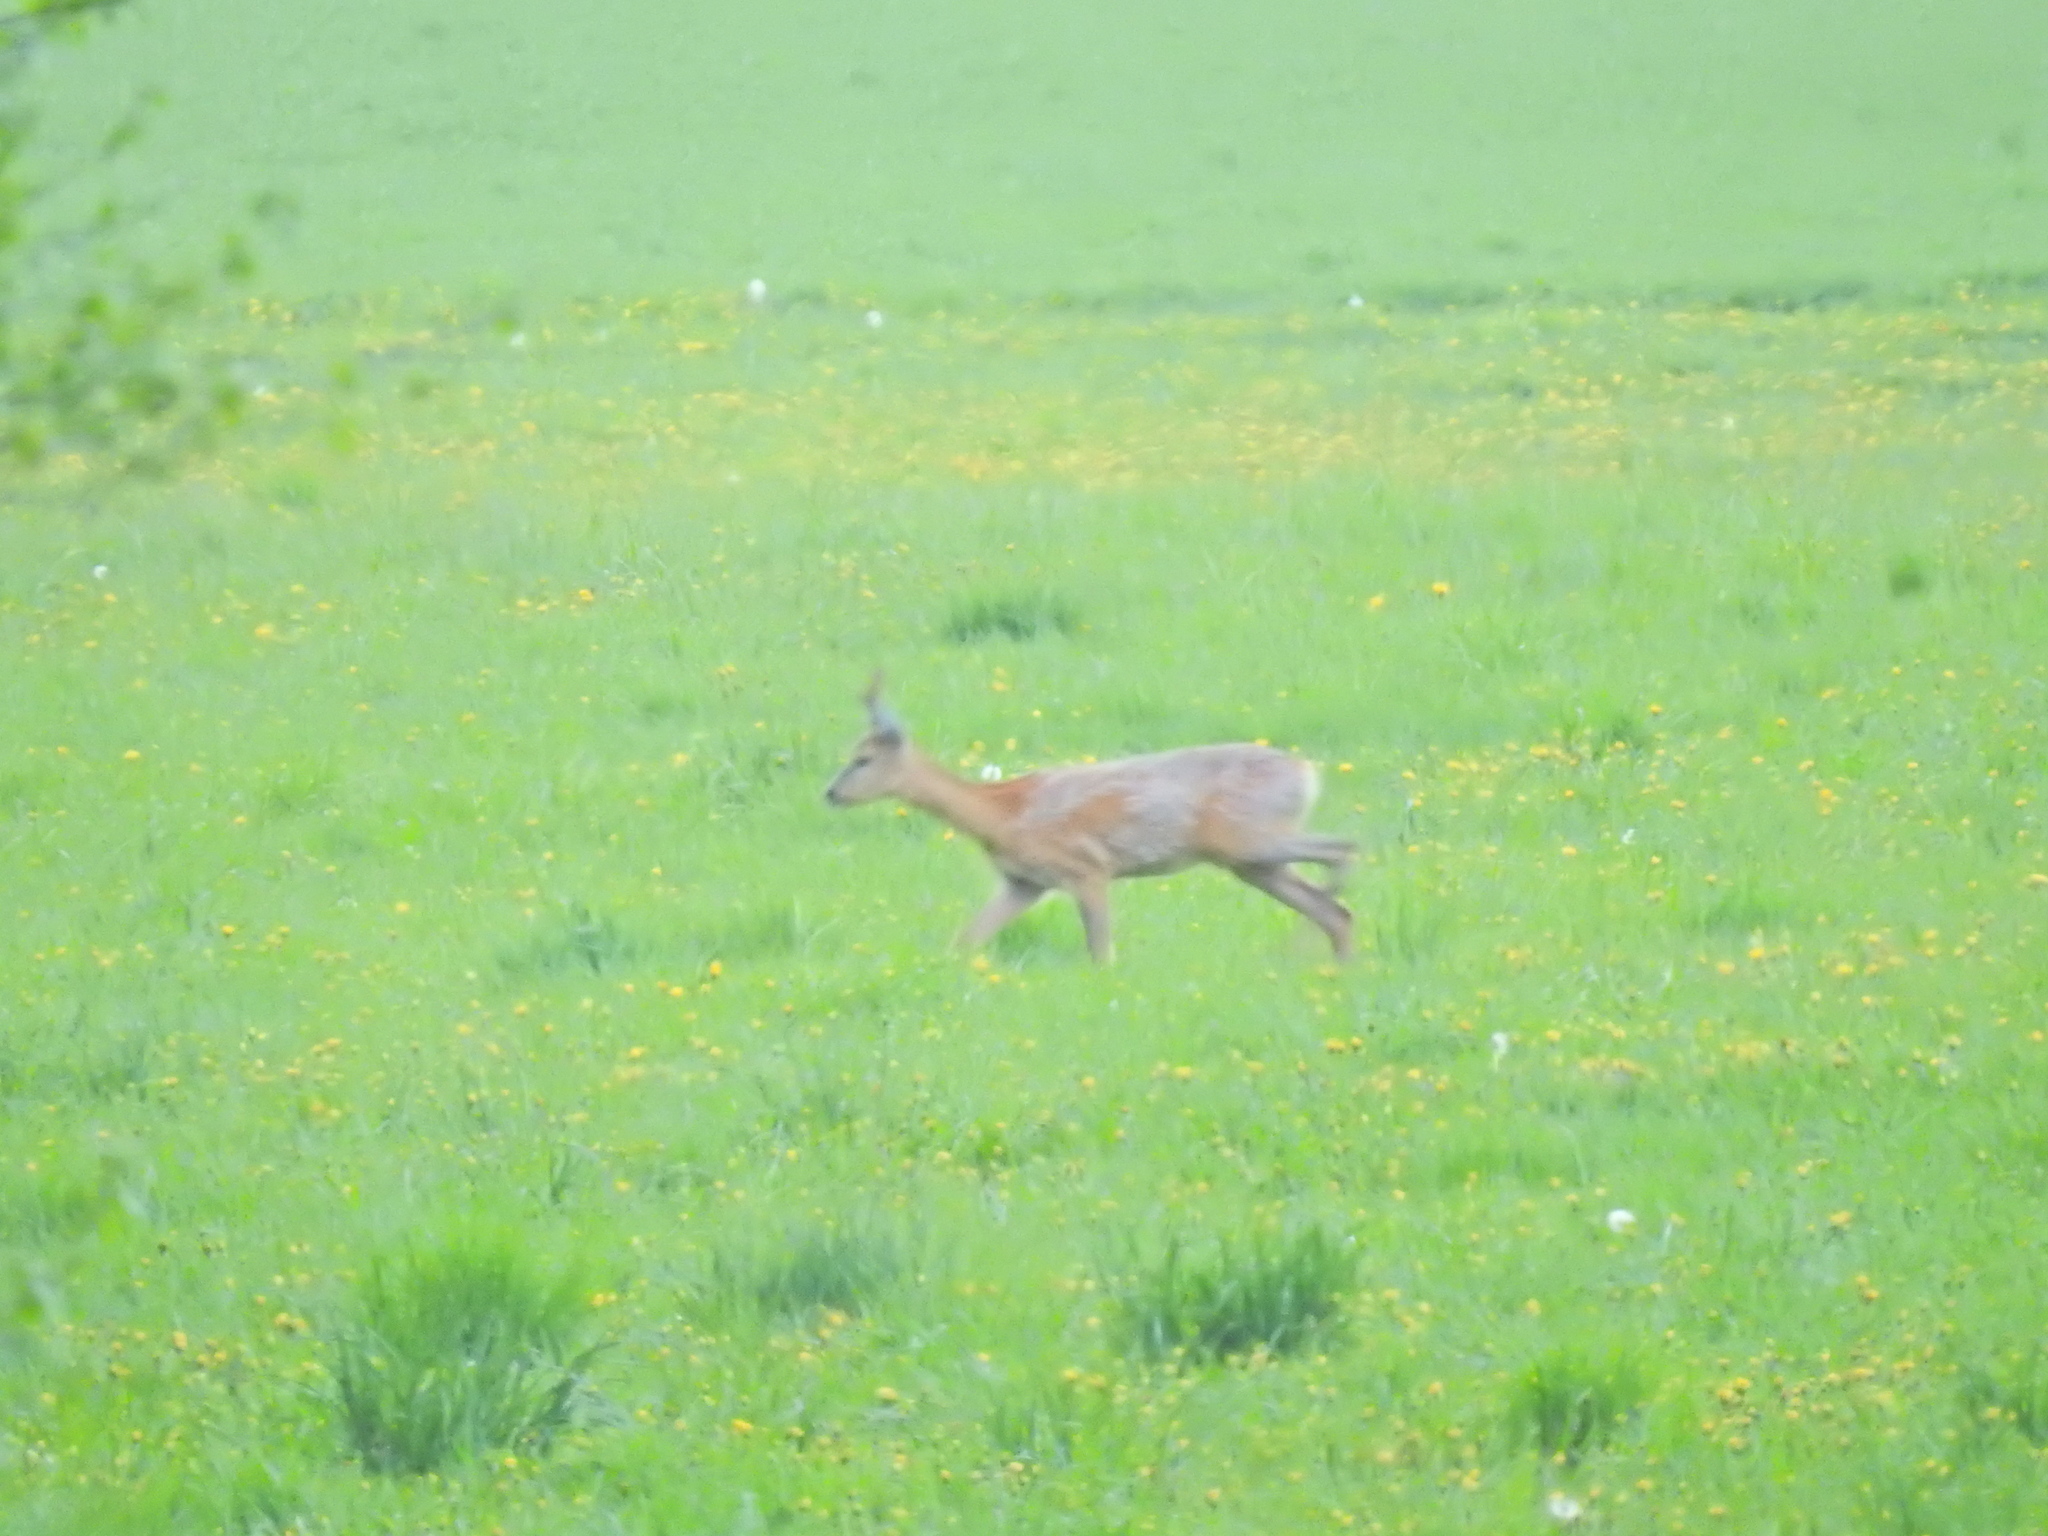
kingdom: Animalia
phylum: Chordata
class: Mammalia
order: Artiodactyla
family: Cervidae
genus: Capreolus
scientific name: Capreolus capreolus
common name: Western roe deer
